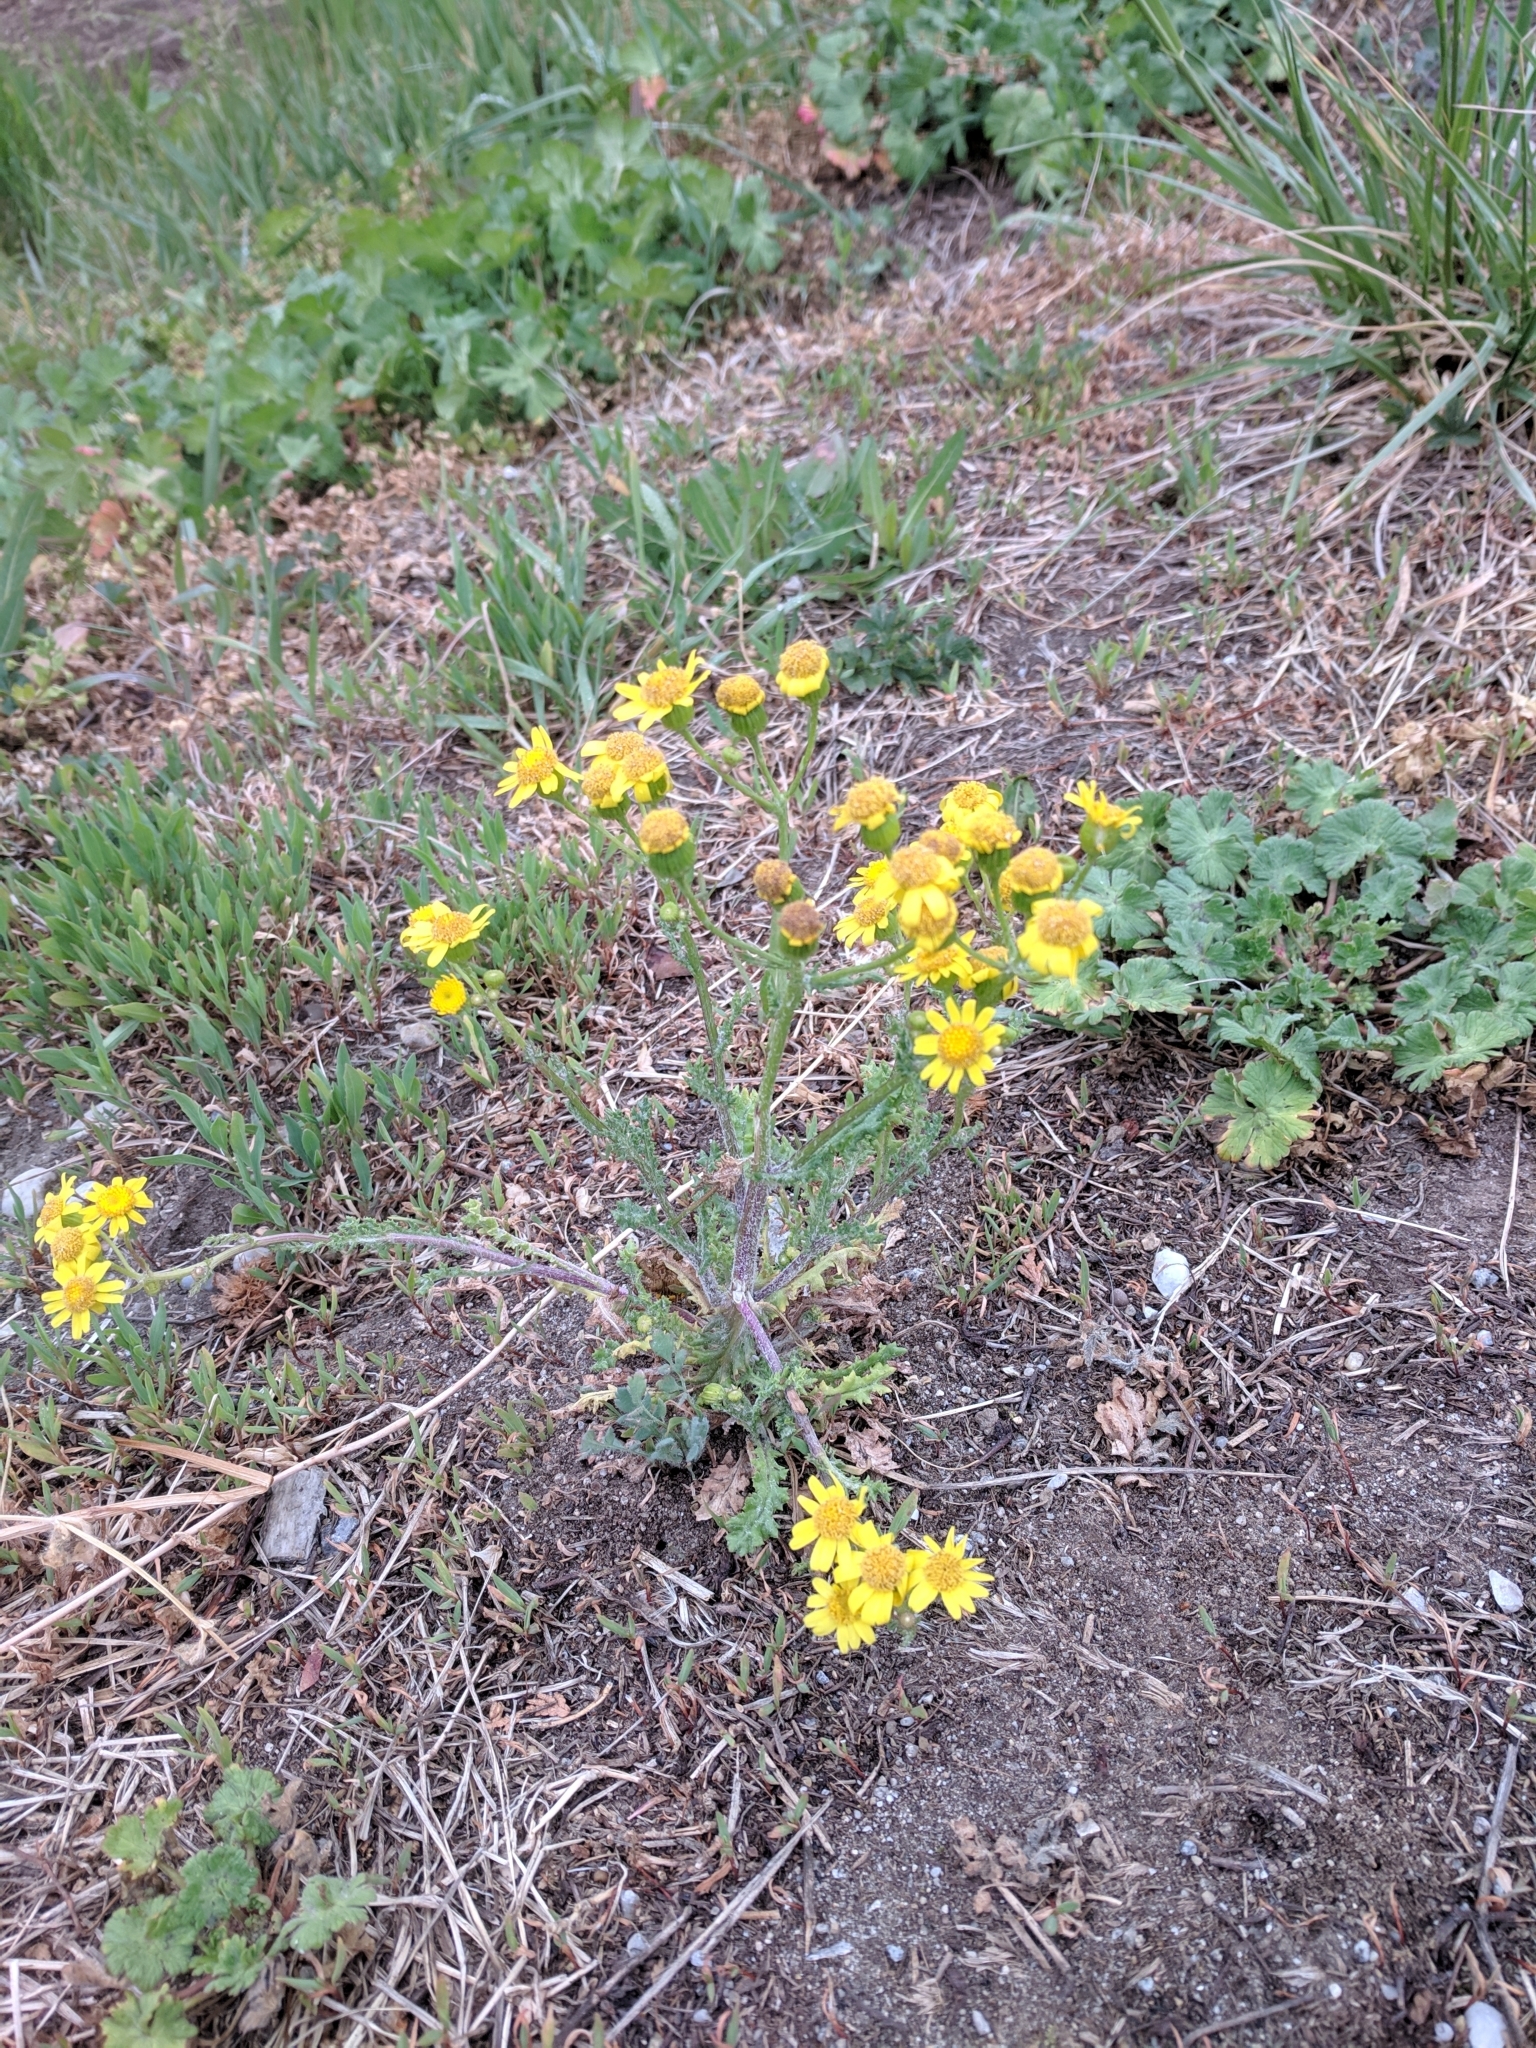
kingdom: Plantae
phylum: Tracheophyta
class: Magnoliopsida
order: Asterales
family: Asteraceae
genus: Senecio
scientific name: Senecio vernalis
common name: Eastern groundsel
